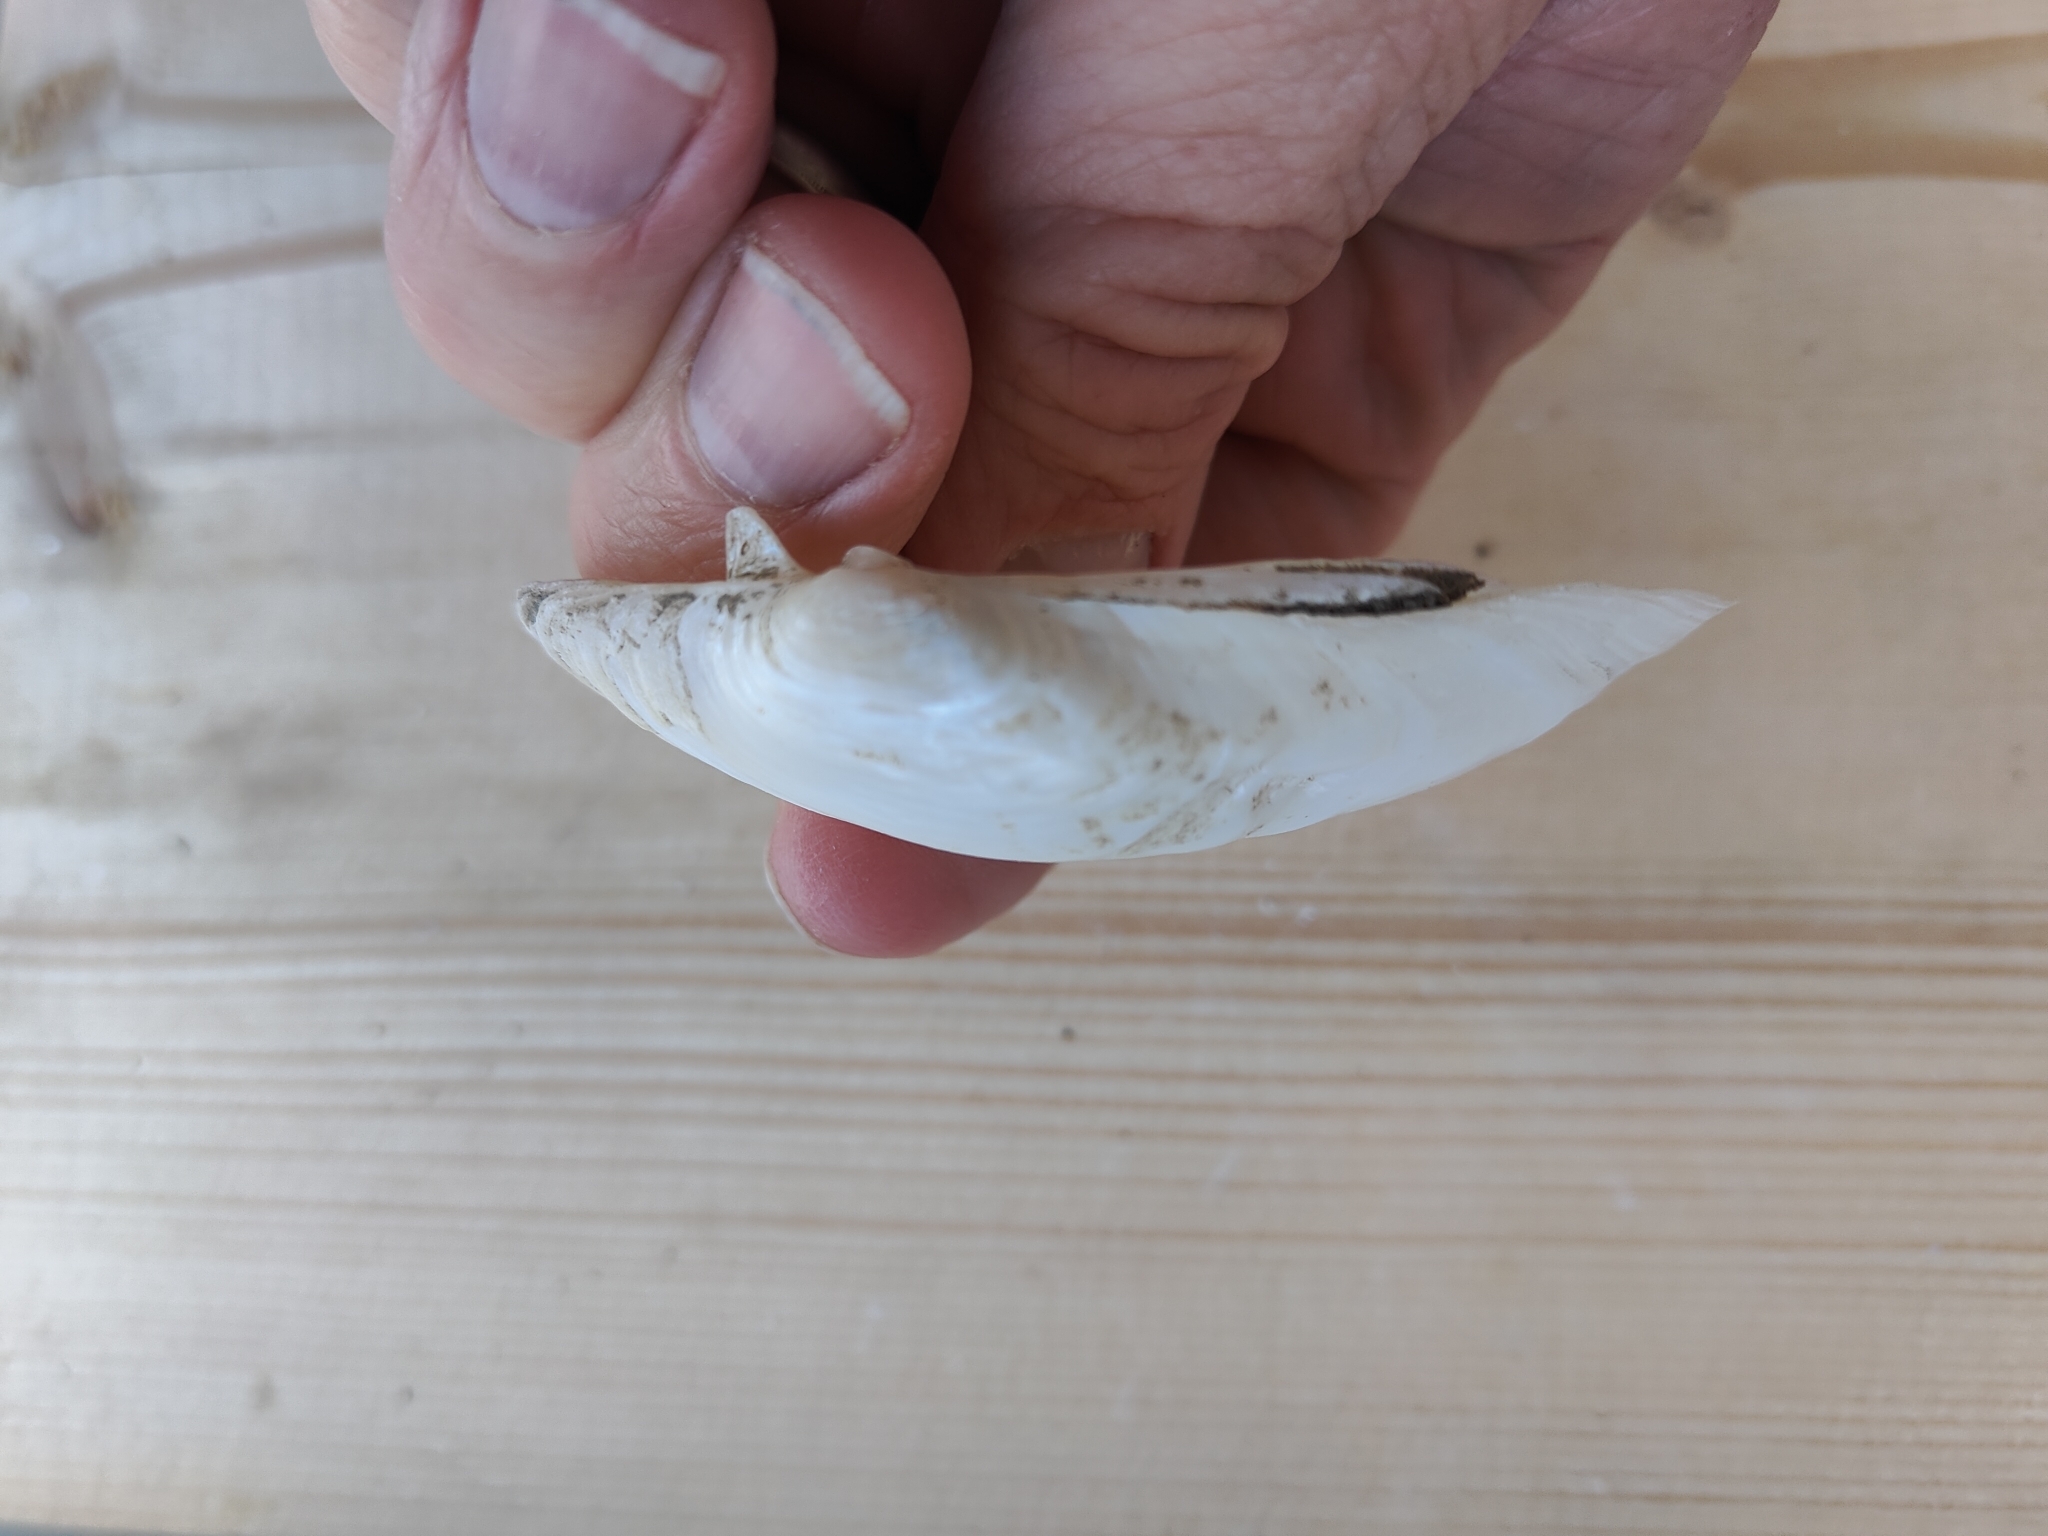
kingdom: Animalia
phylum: Mollusca
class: Bivalvia
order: Unionida
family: Unionidae
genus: Lampsilis
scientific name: Lampsilis siliquoidea
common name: Fatmucket
